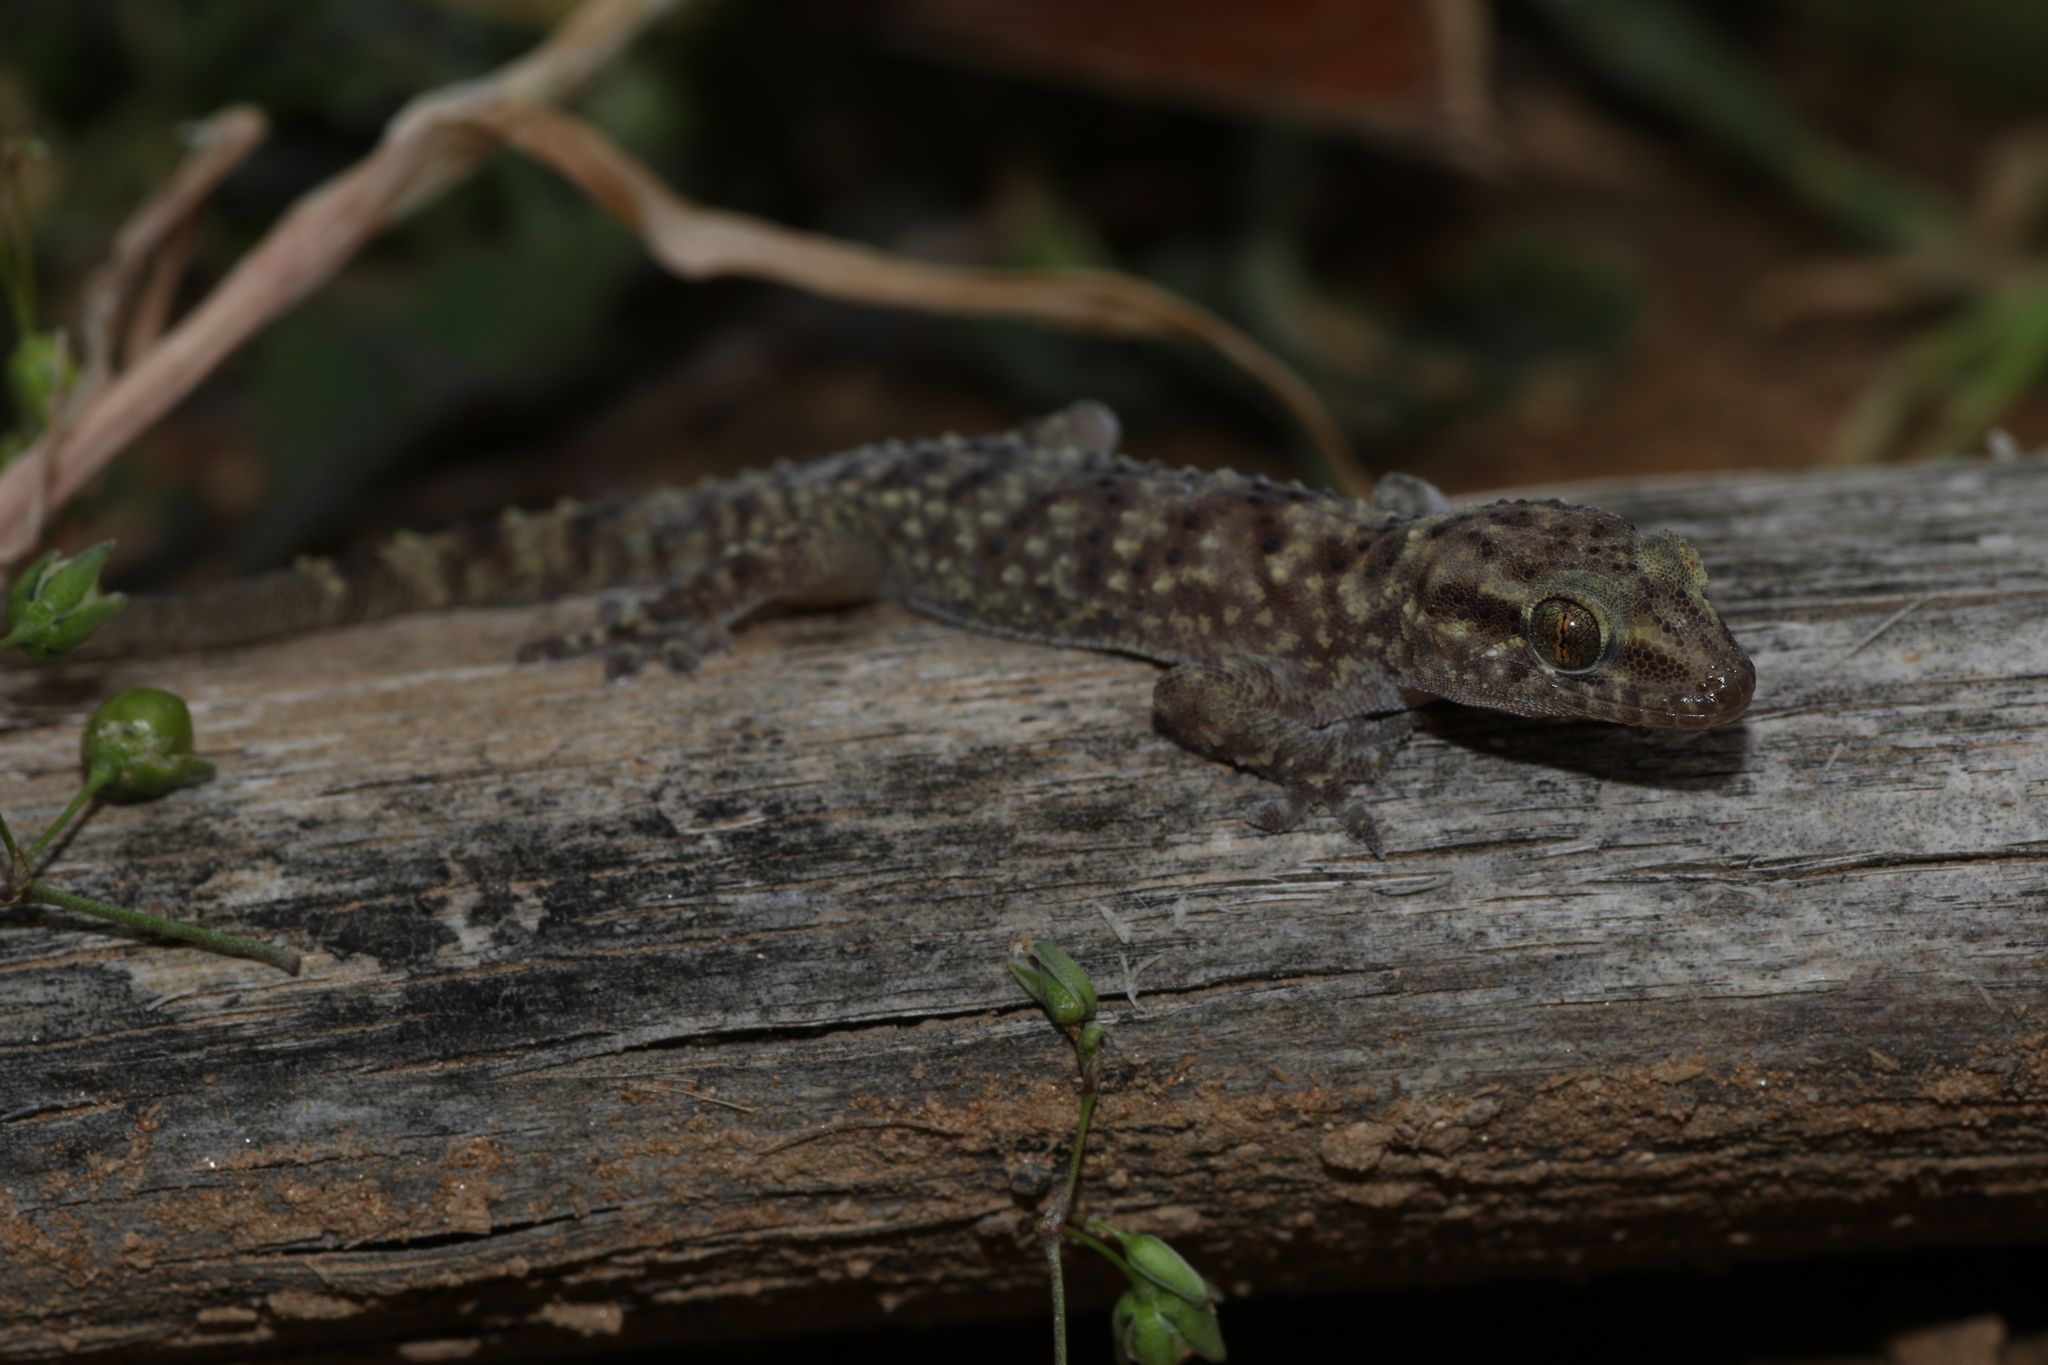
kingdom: Animalia
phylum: Chordata
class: Squamata
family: Gekkonidae
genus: Hemidactylus
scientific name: Hemidactylus granosus
